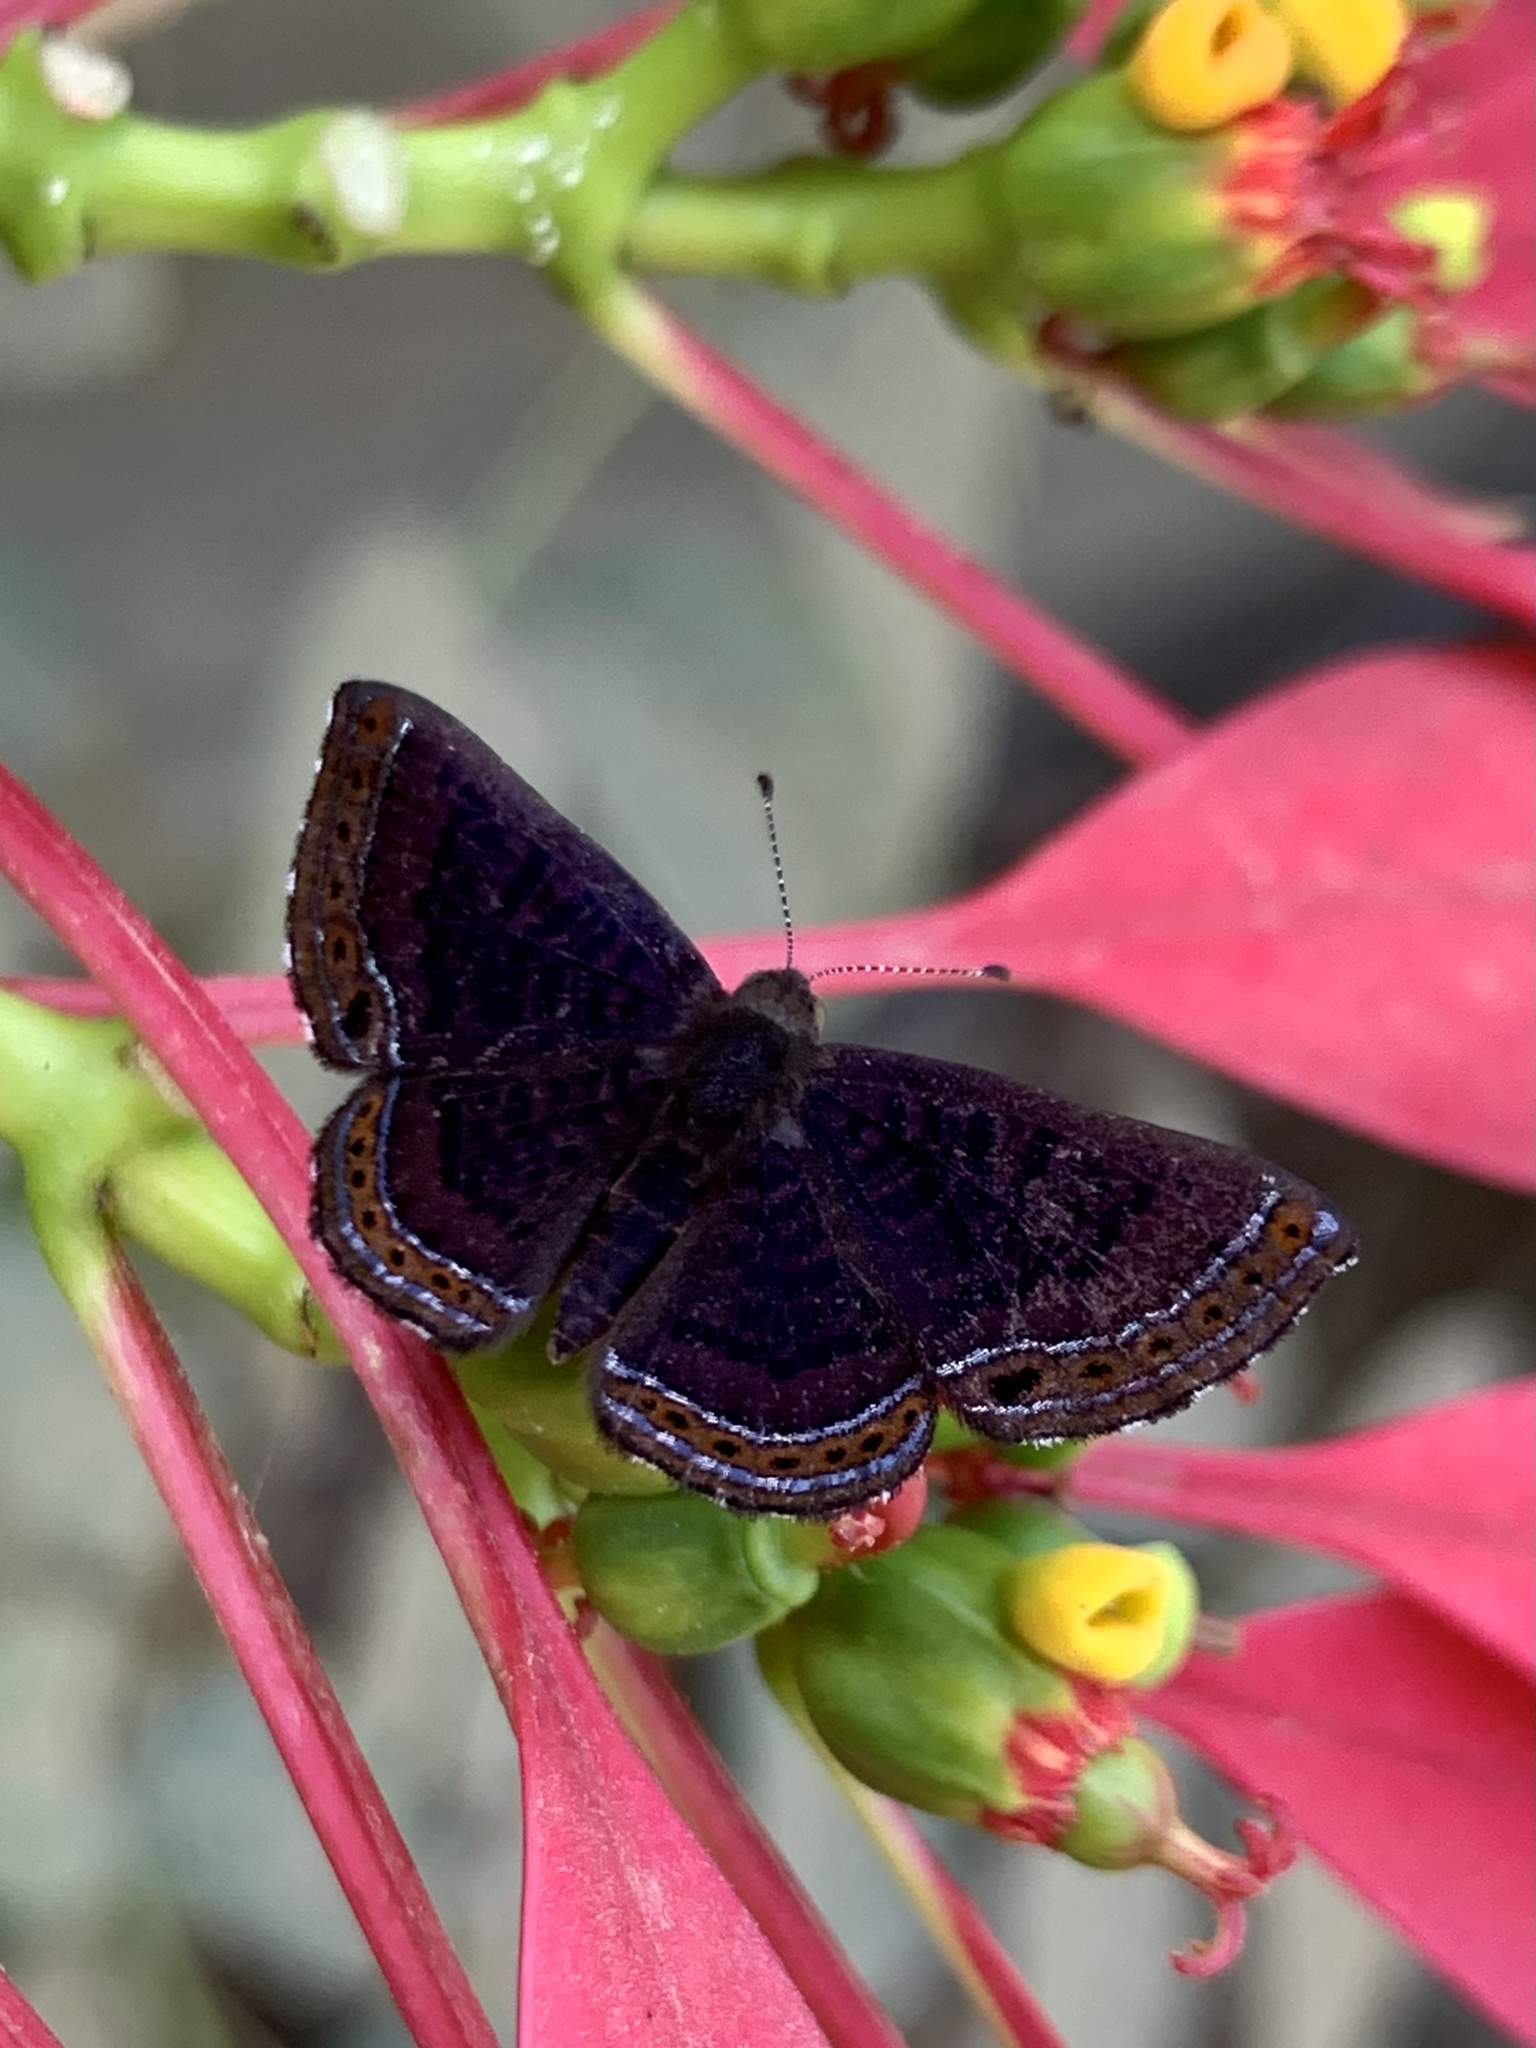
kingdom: Animalia
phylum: Arthropoda
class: Insecta
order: Lepidoptera
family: Riodinidae
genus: Detritivora
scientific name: Detritivora
